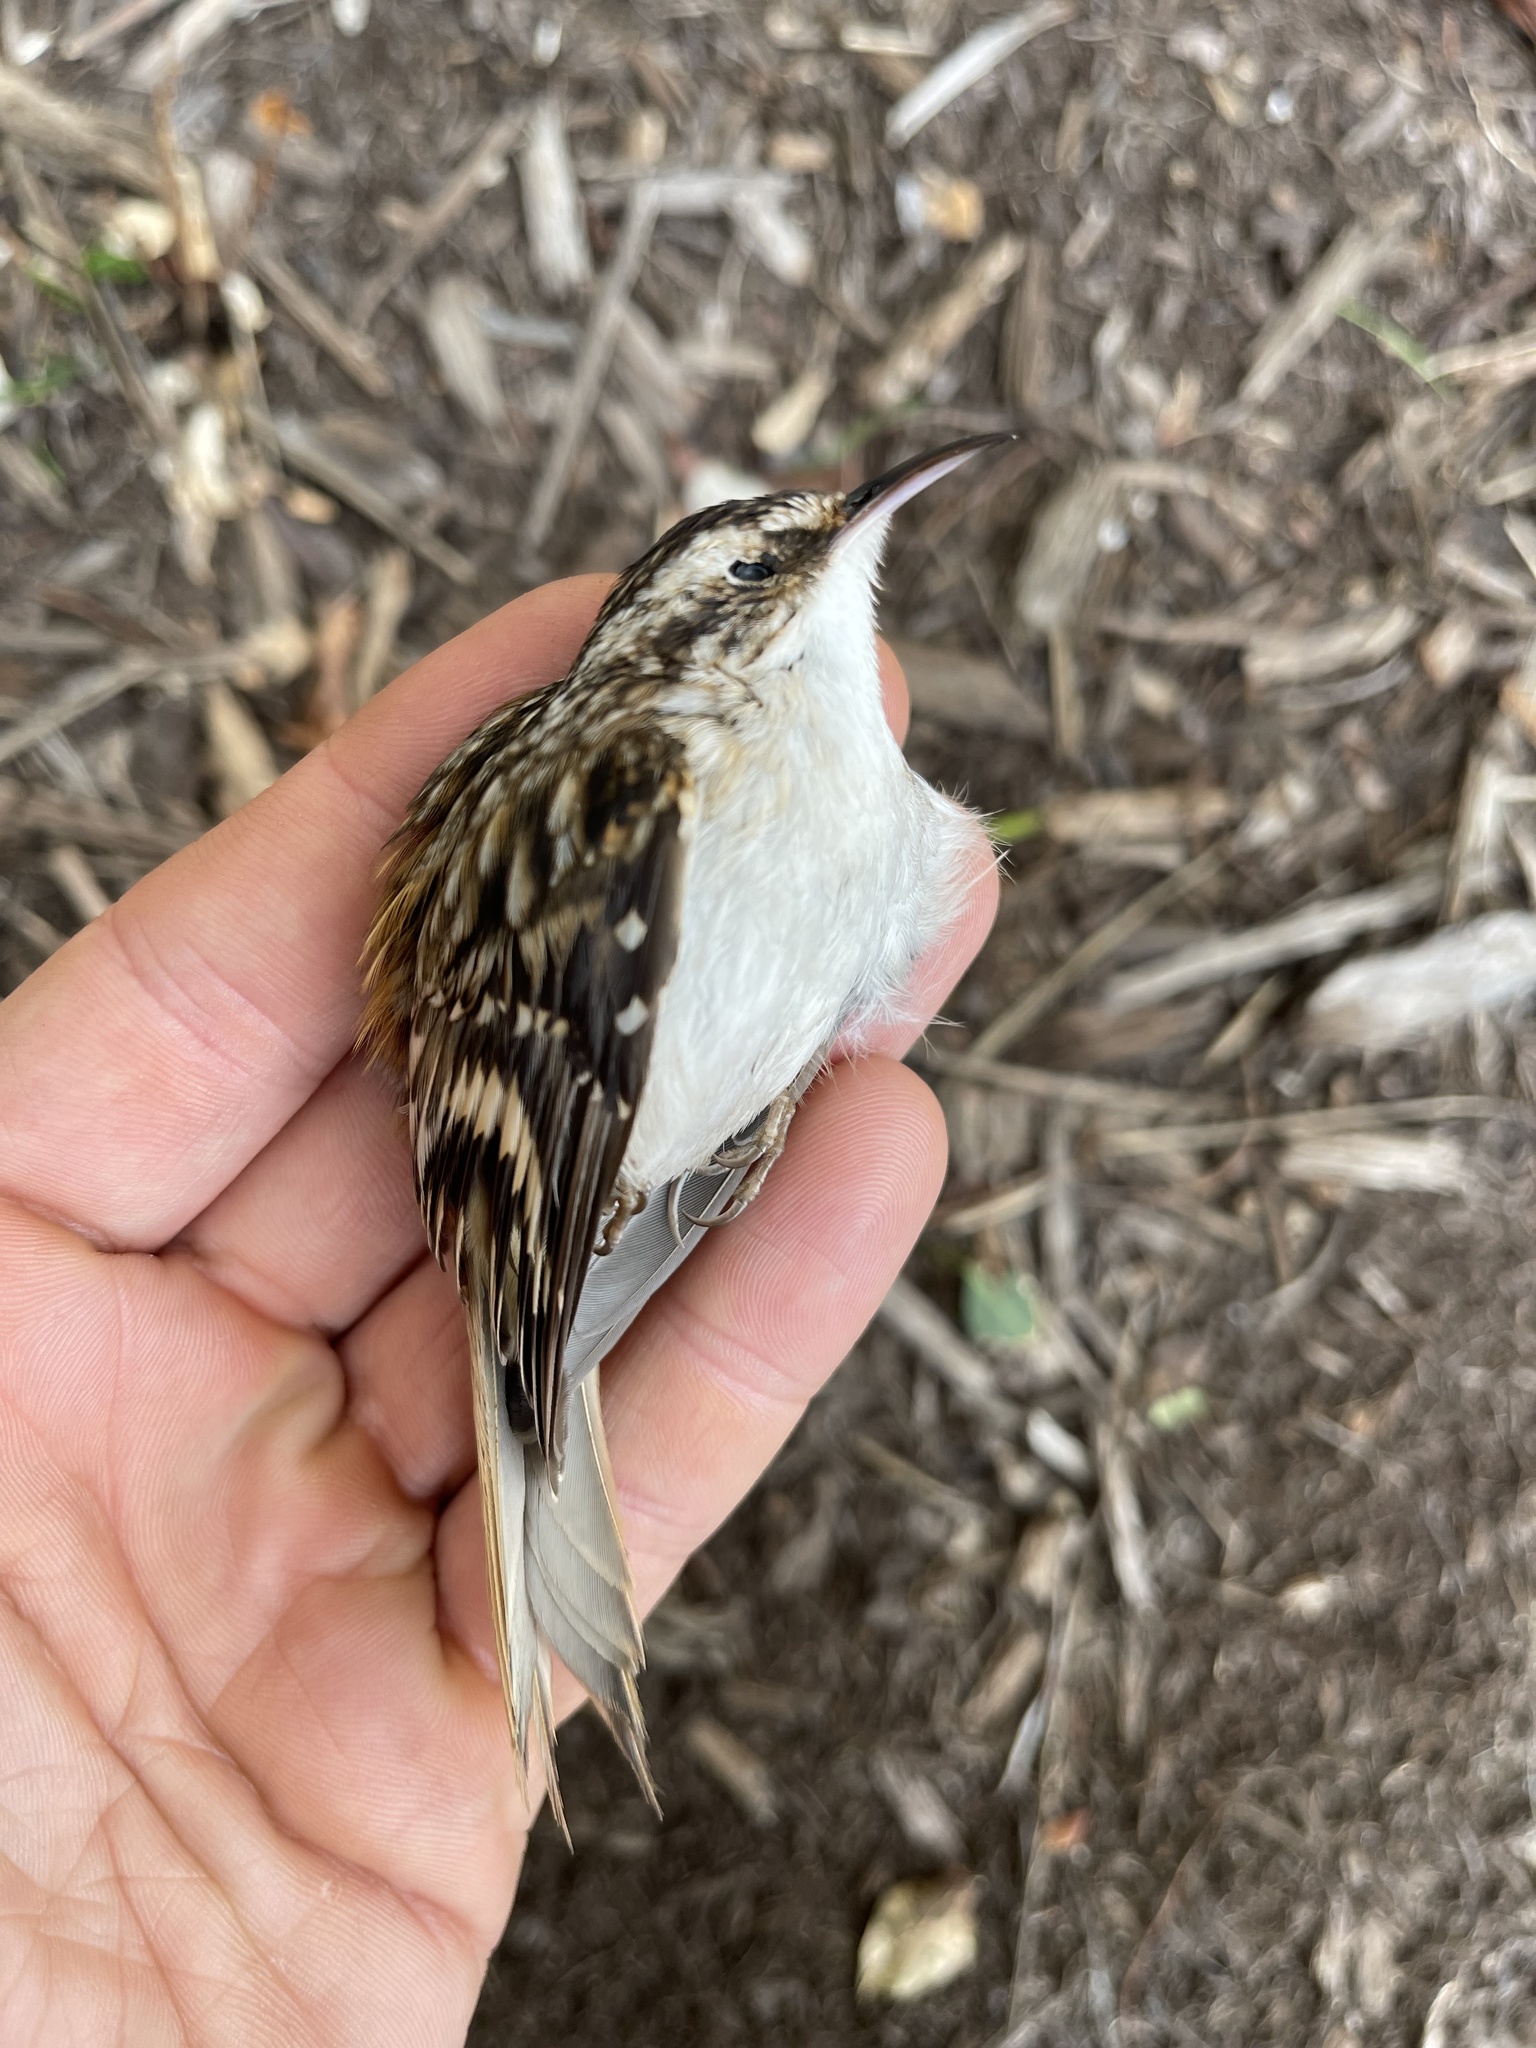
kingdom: Animalia
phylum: Chordata
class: Aves
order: Passeriformes
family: Certhiidae
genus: Certhia
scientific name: Certhia americana
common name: Brown creeper
